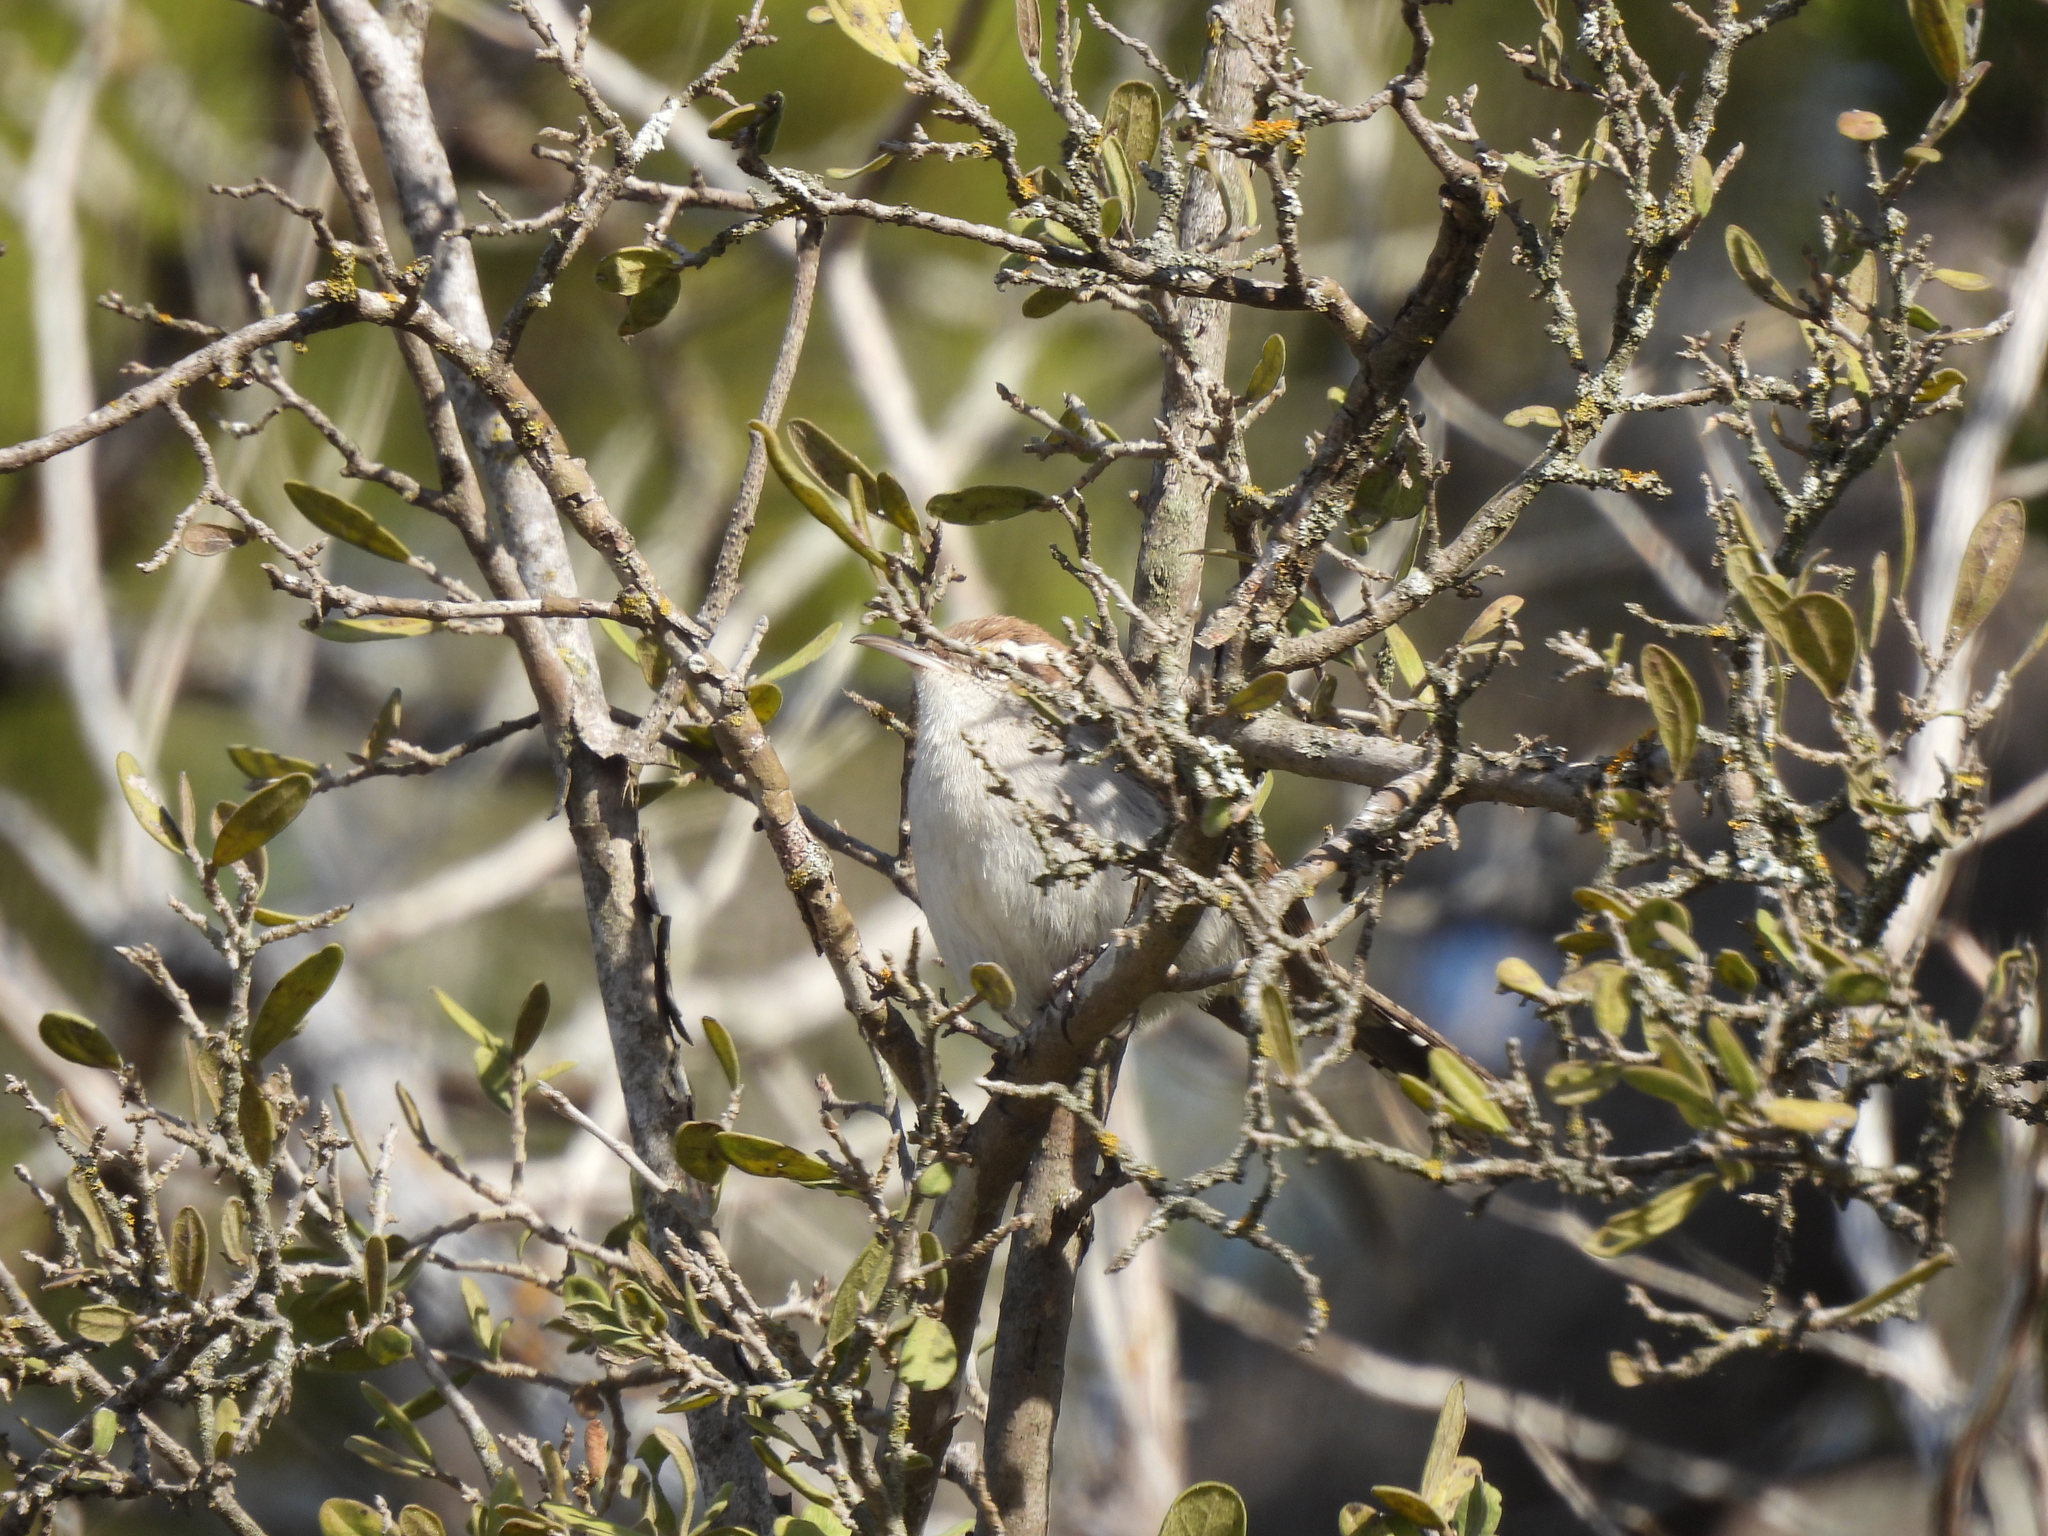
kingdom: Animalia
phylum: Chordata
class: Aves
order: Passeriformes
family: Troglodytidae
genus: Thryomanes
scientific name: Thryomanes bewickii
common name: Bewick's wren
